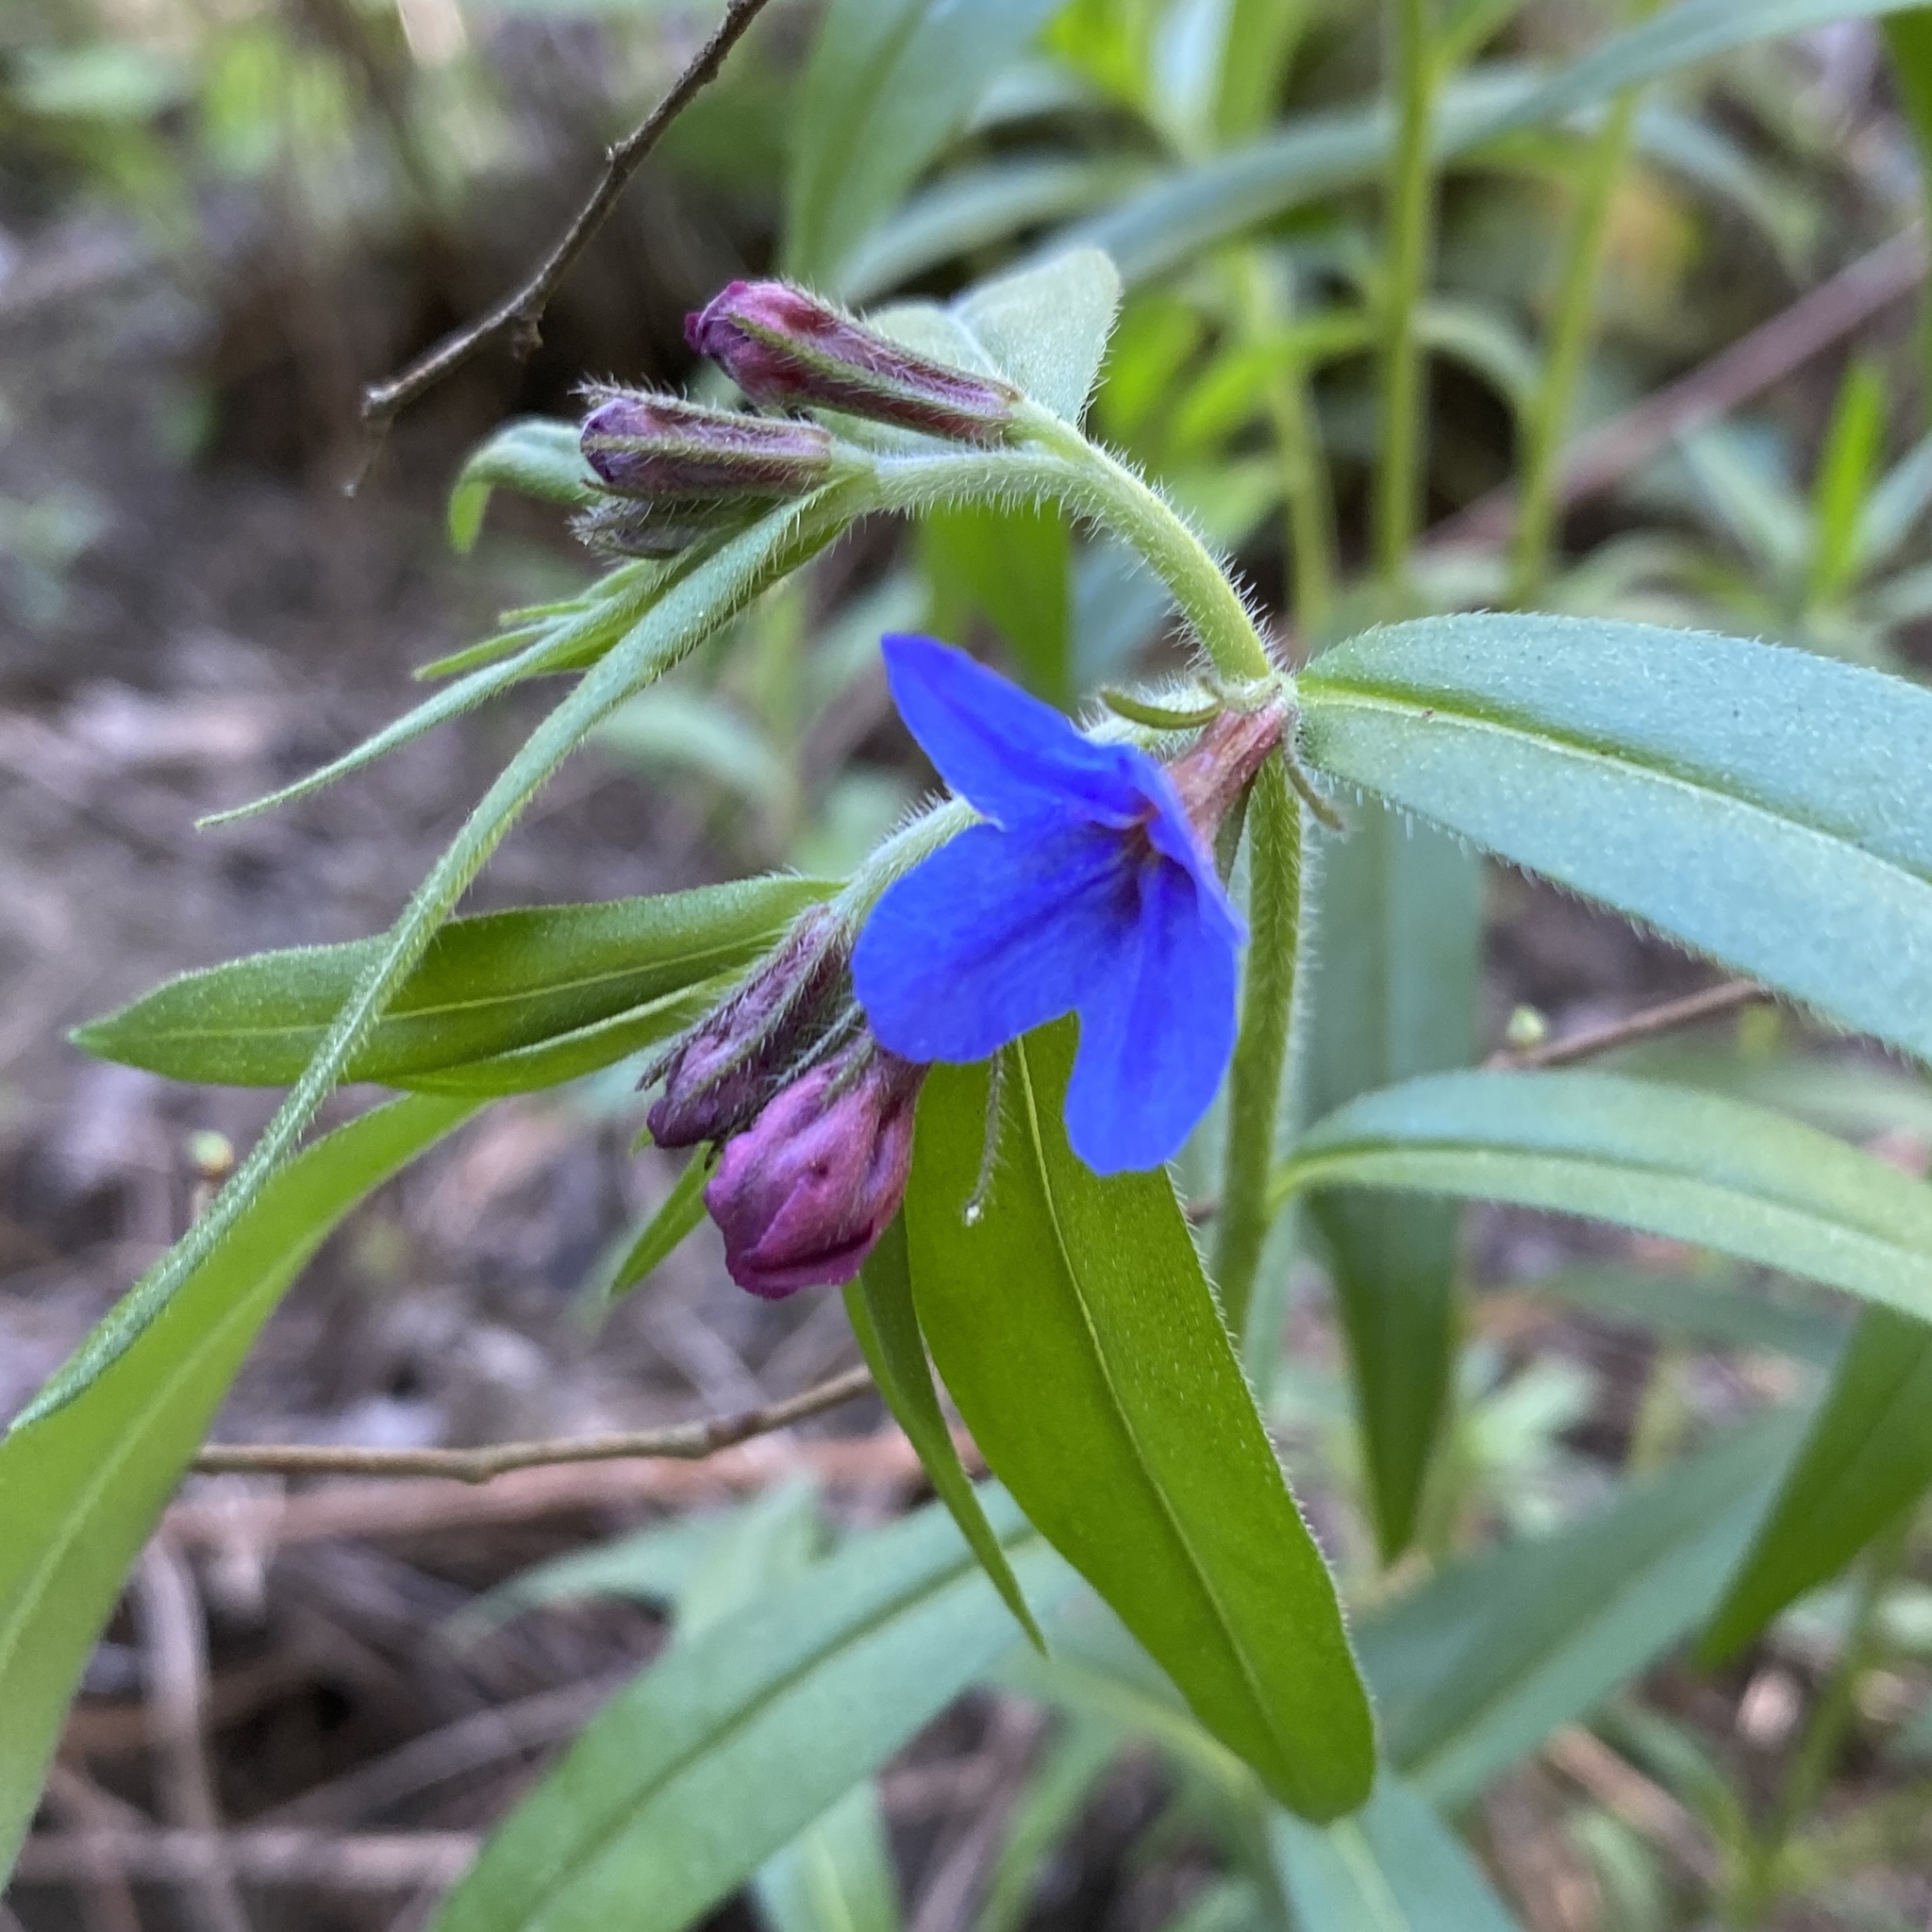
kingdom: Plantae
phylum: Tracheophyta
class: Magnoliopsida
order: Boraginales
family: Boraginaceae
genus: Aegonychon
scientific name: Aegonychon purpurocaeruleum
